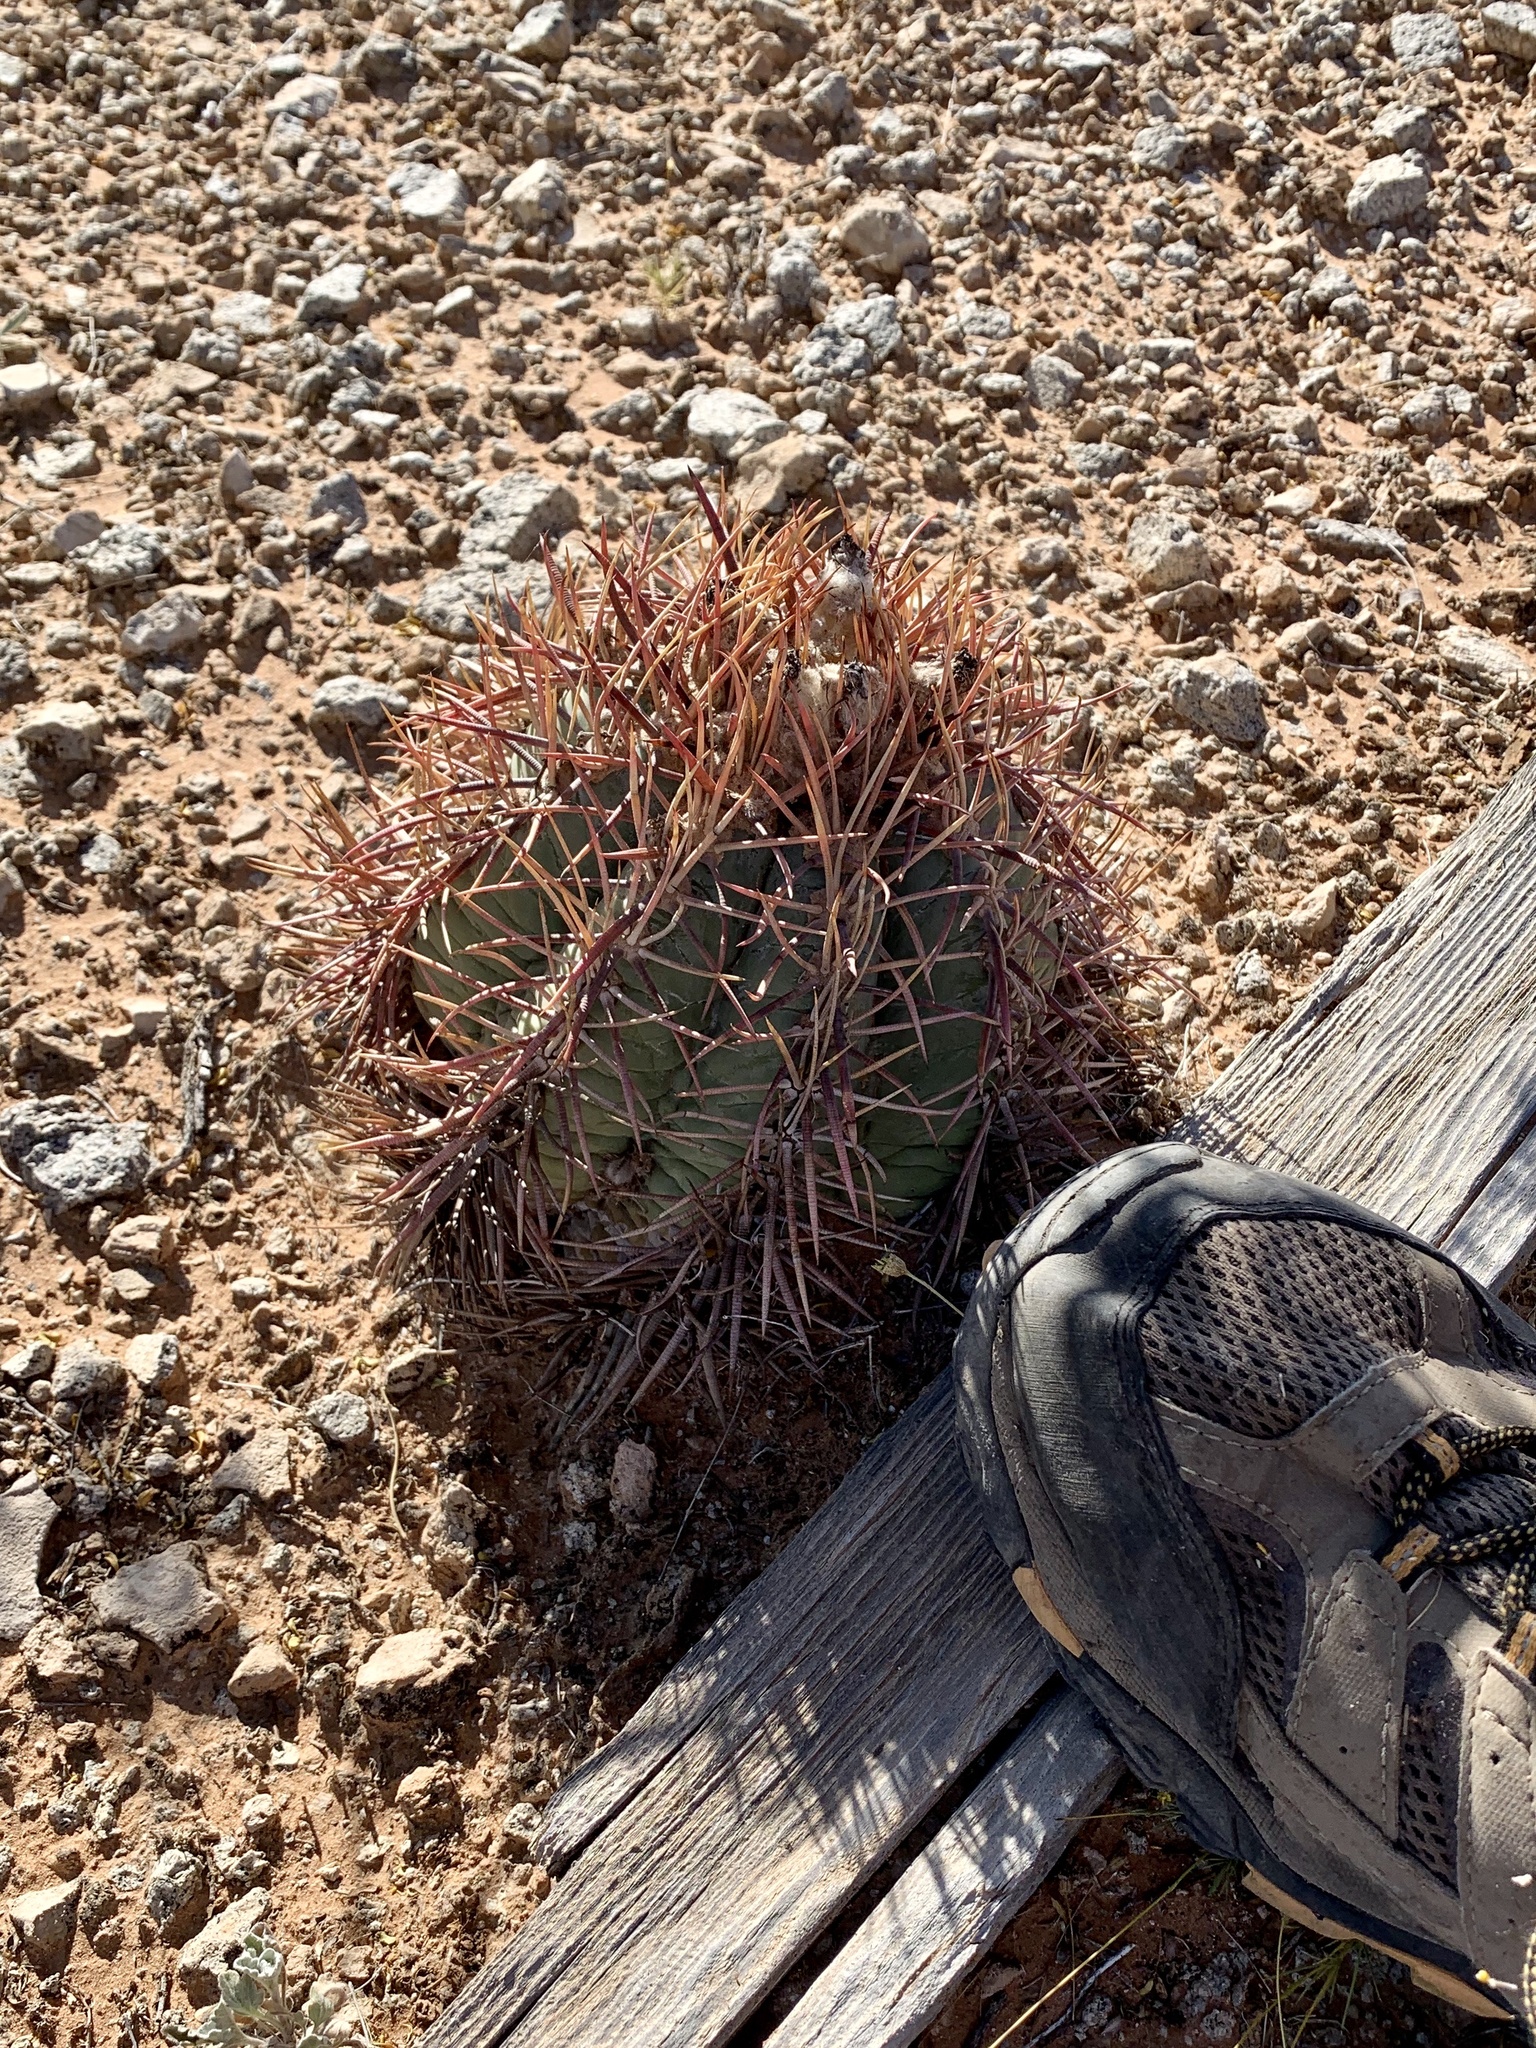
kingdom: Plantae
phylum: Tracheophyta
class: Magnoliopsida
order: Caryophyllales
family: Cactaceae
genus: Echinocactus
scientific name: Echinocactus horizonthalonius
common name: Devilshead
